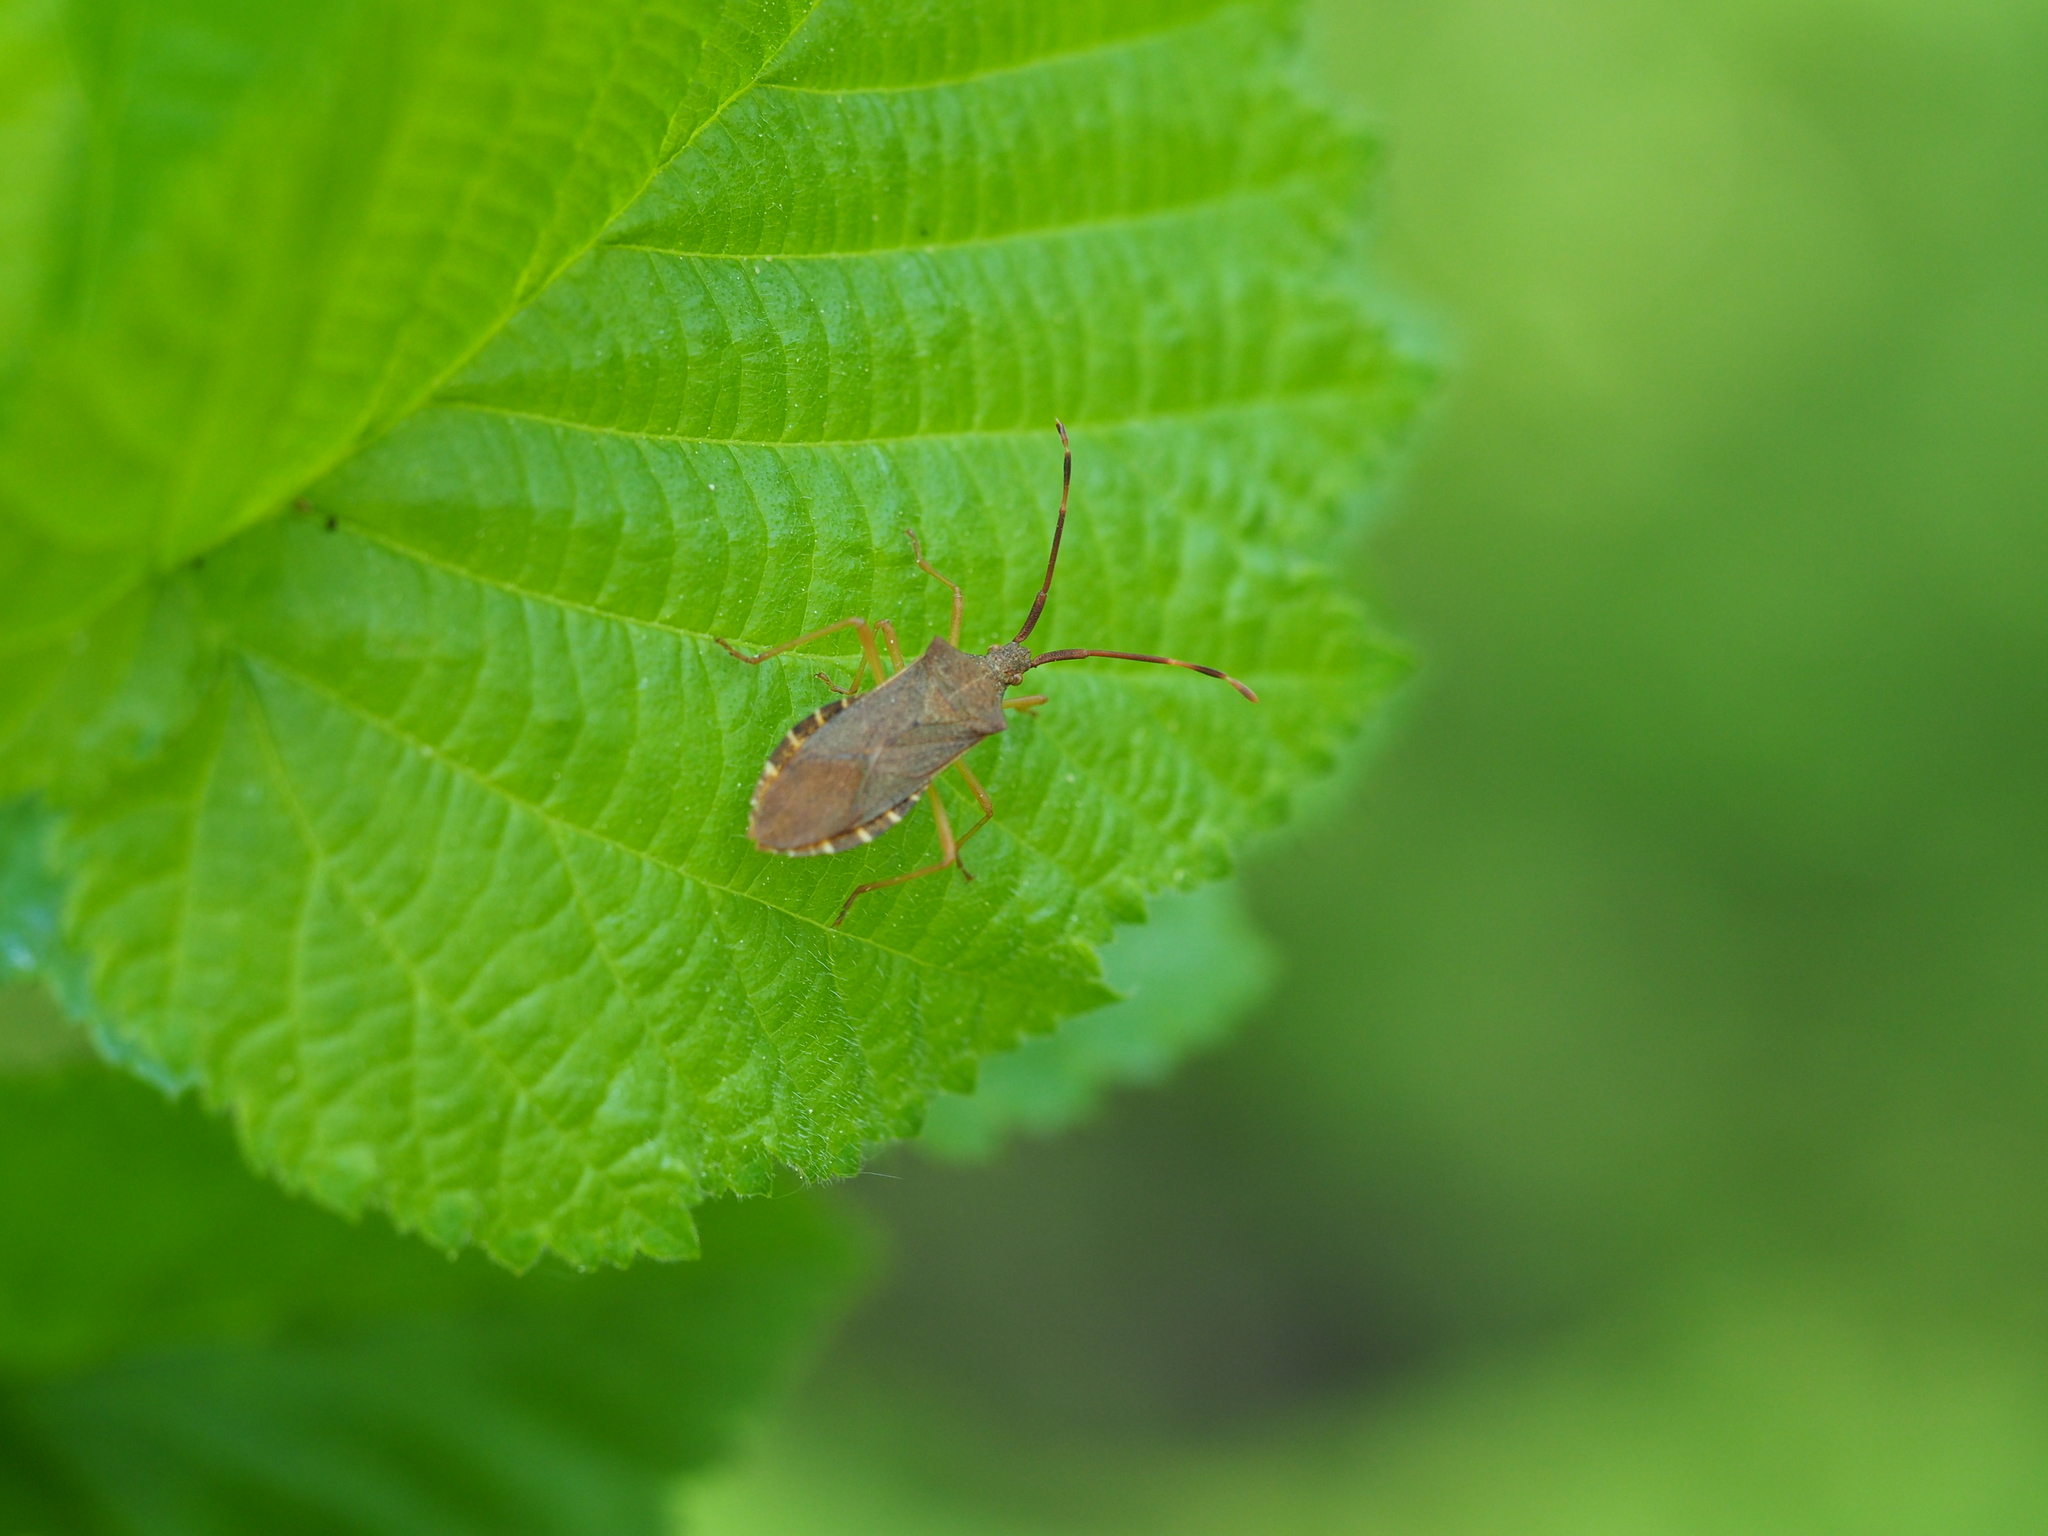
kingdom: Animalia
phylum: Arthropoda
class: Insecta
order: Hemiptera
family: Coreidae
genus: Gonocerus
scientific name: Gonocerus acuteangulatus
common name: Box bug
